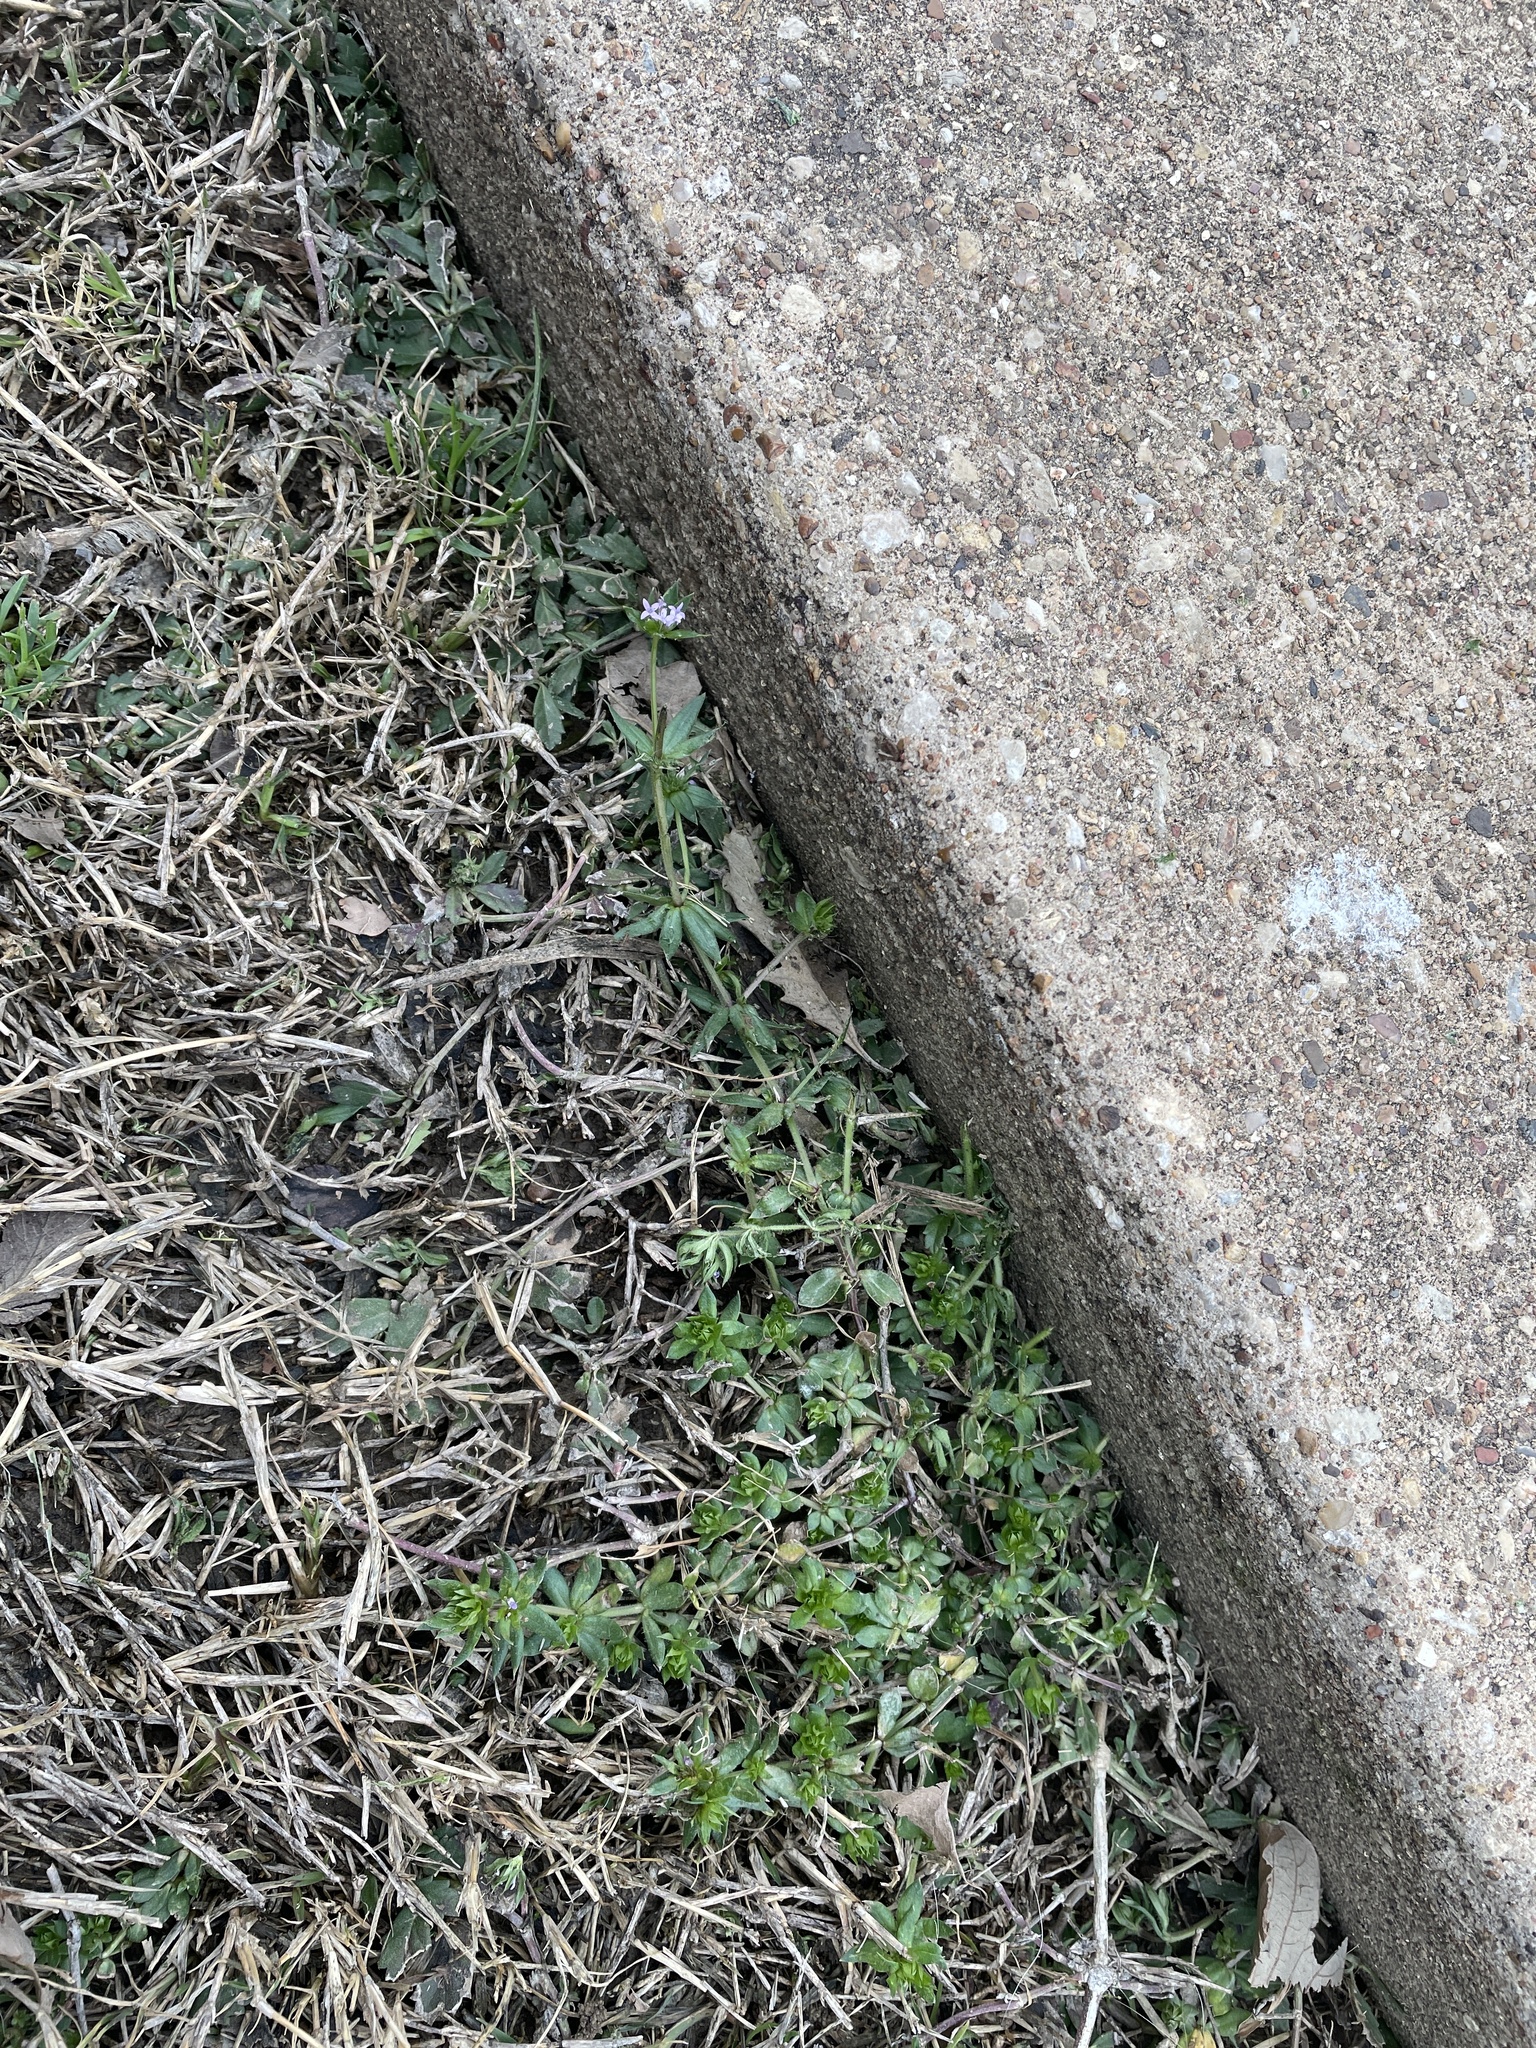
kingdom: Plantae
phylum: Tracheophyta
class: Magnoliopsida
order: Gentianales
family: Rubiaceae
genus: Sherardia
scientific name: Sherardia arvensis
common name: Field madder
